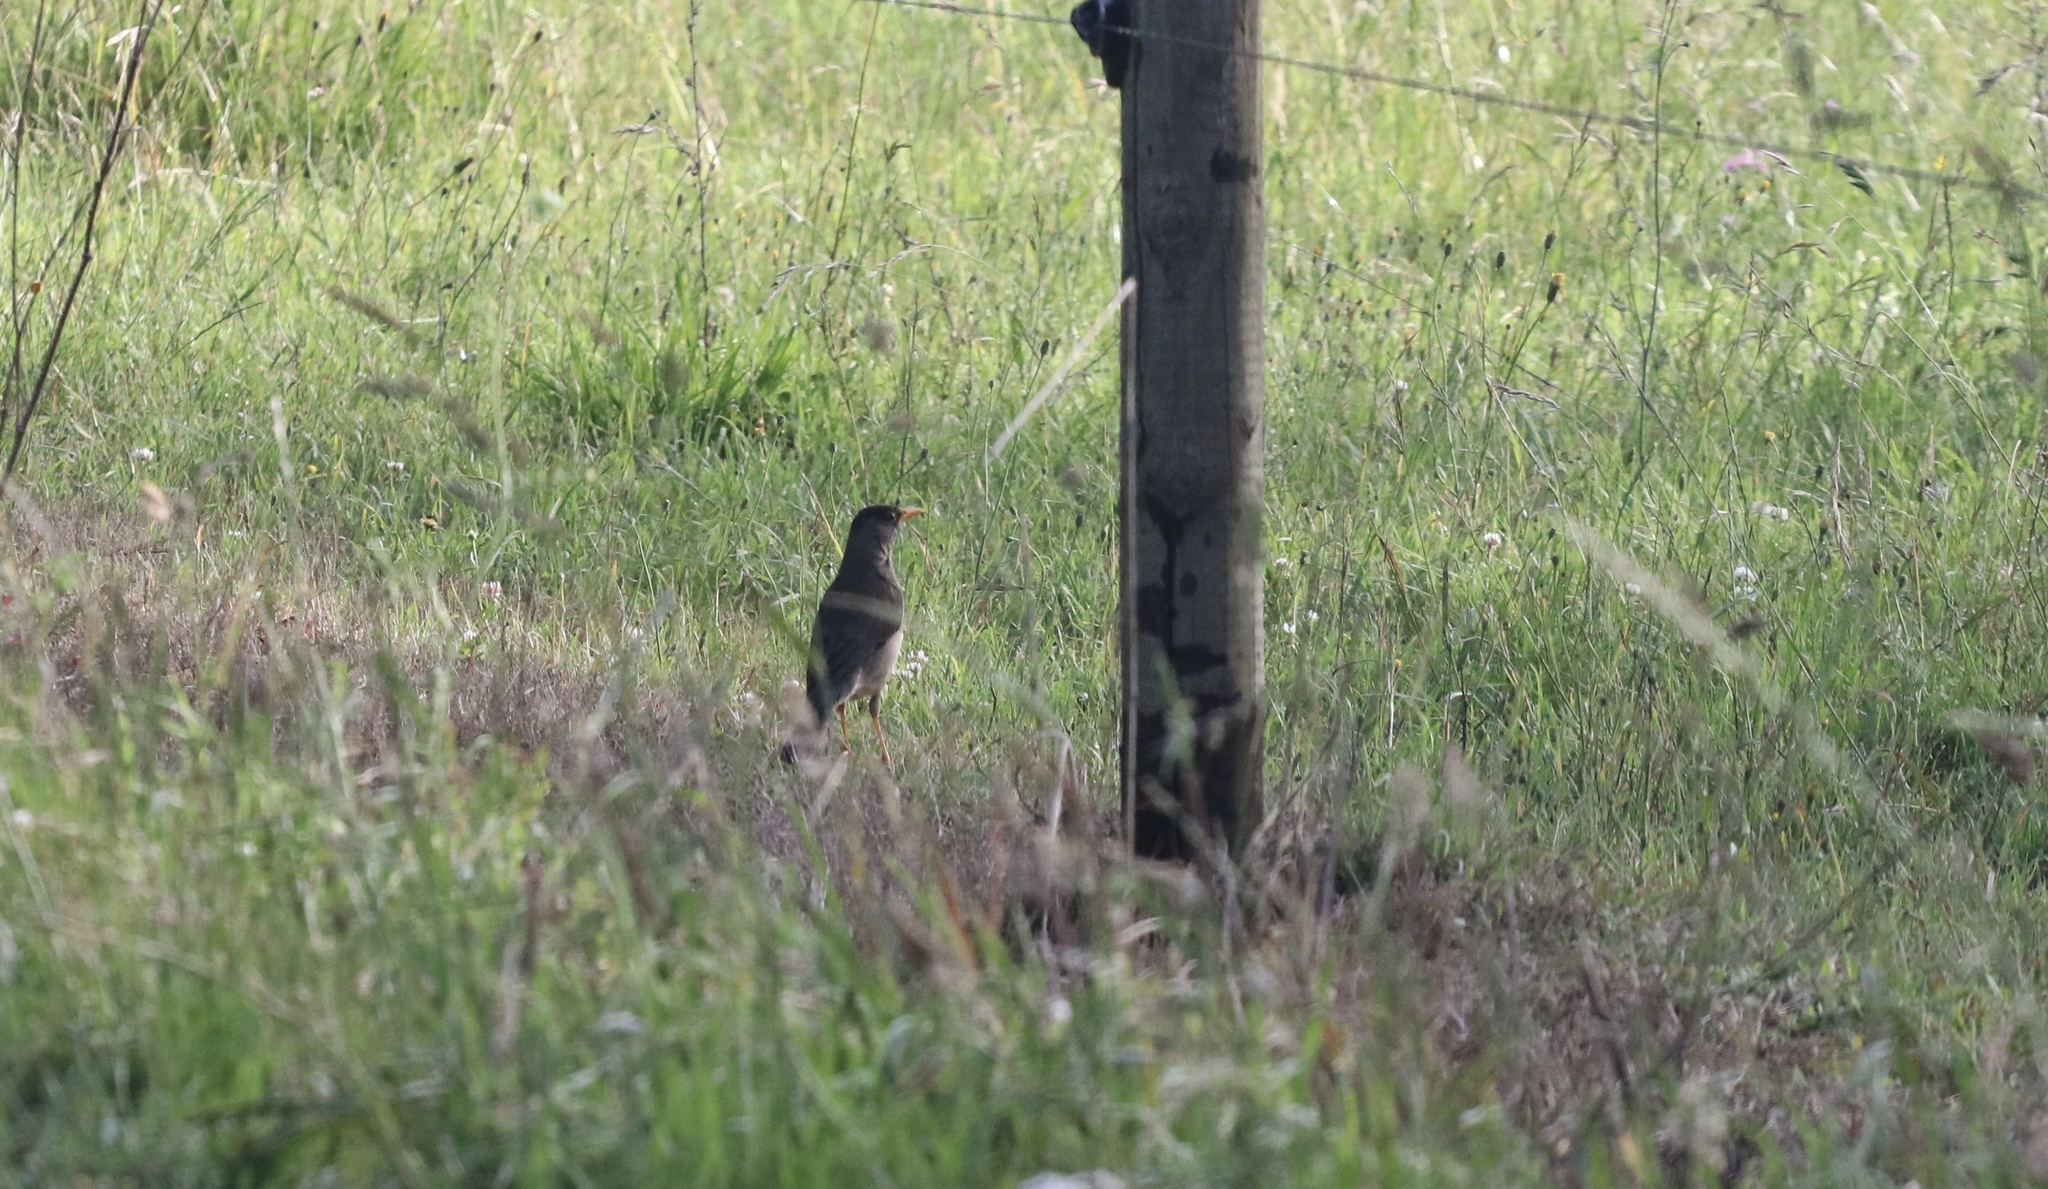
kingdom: Animalia
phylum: Chordata
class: Aves
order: Passeriformes
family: Turdidae
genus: Turdus
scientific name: Turdus falcklandii
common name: Austral thrush
